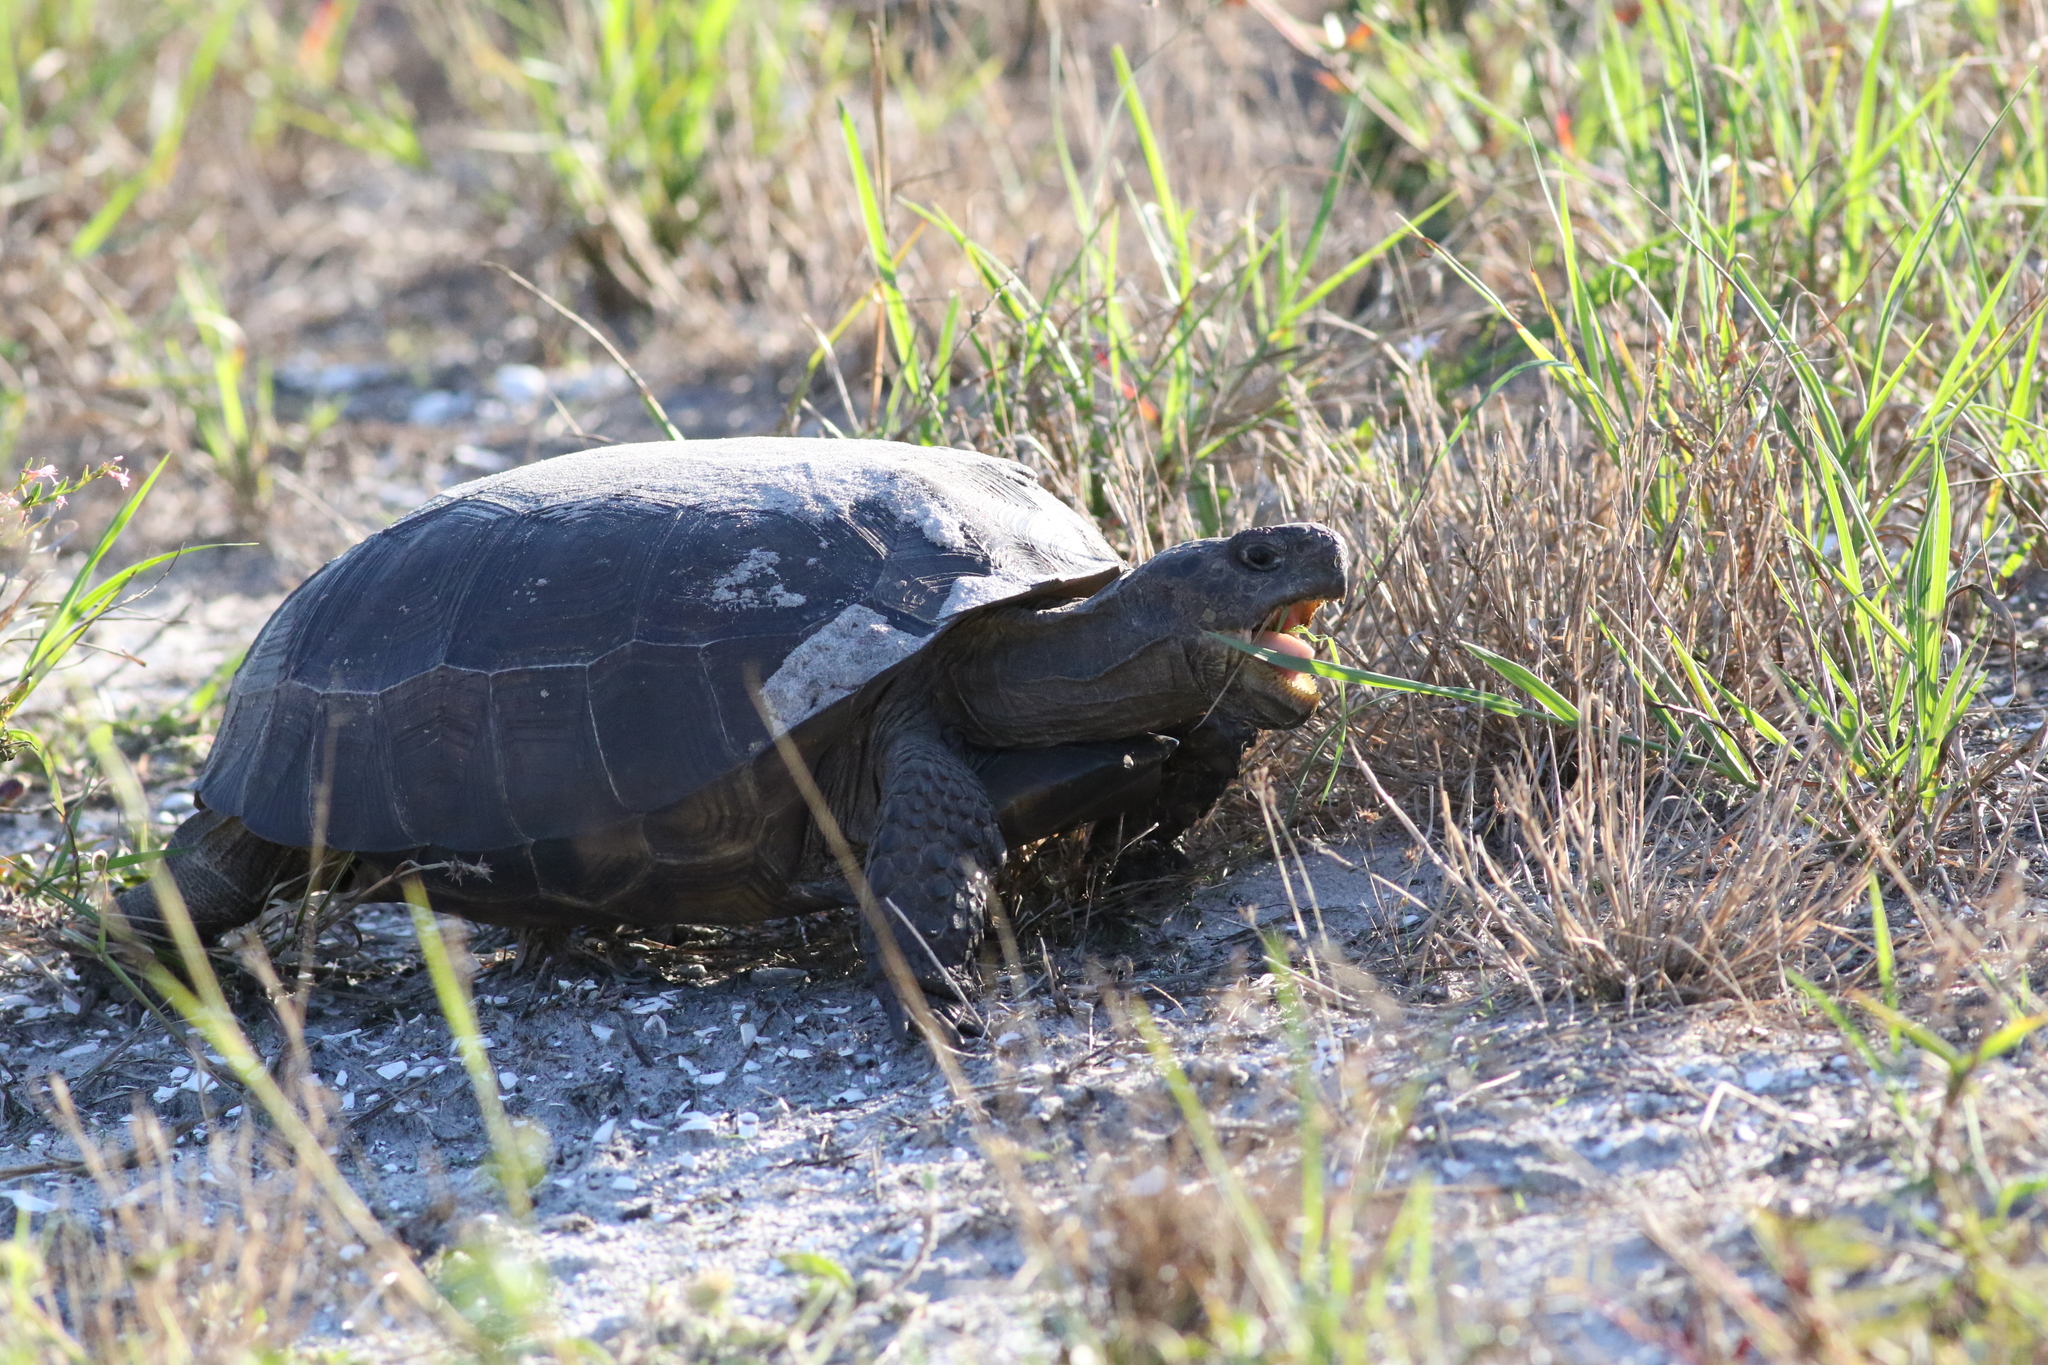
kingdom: Animalia
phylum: Chordata
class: Testudines
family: Testudinidae
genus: Gopherus
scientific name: Gopherus polyphemus
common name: Florida gopher tortoise
